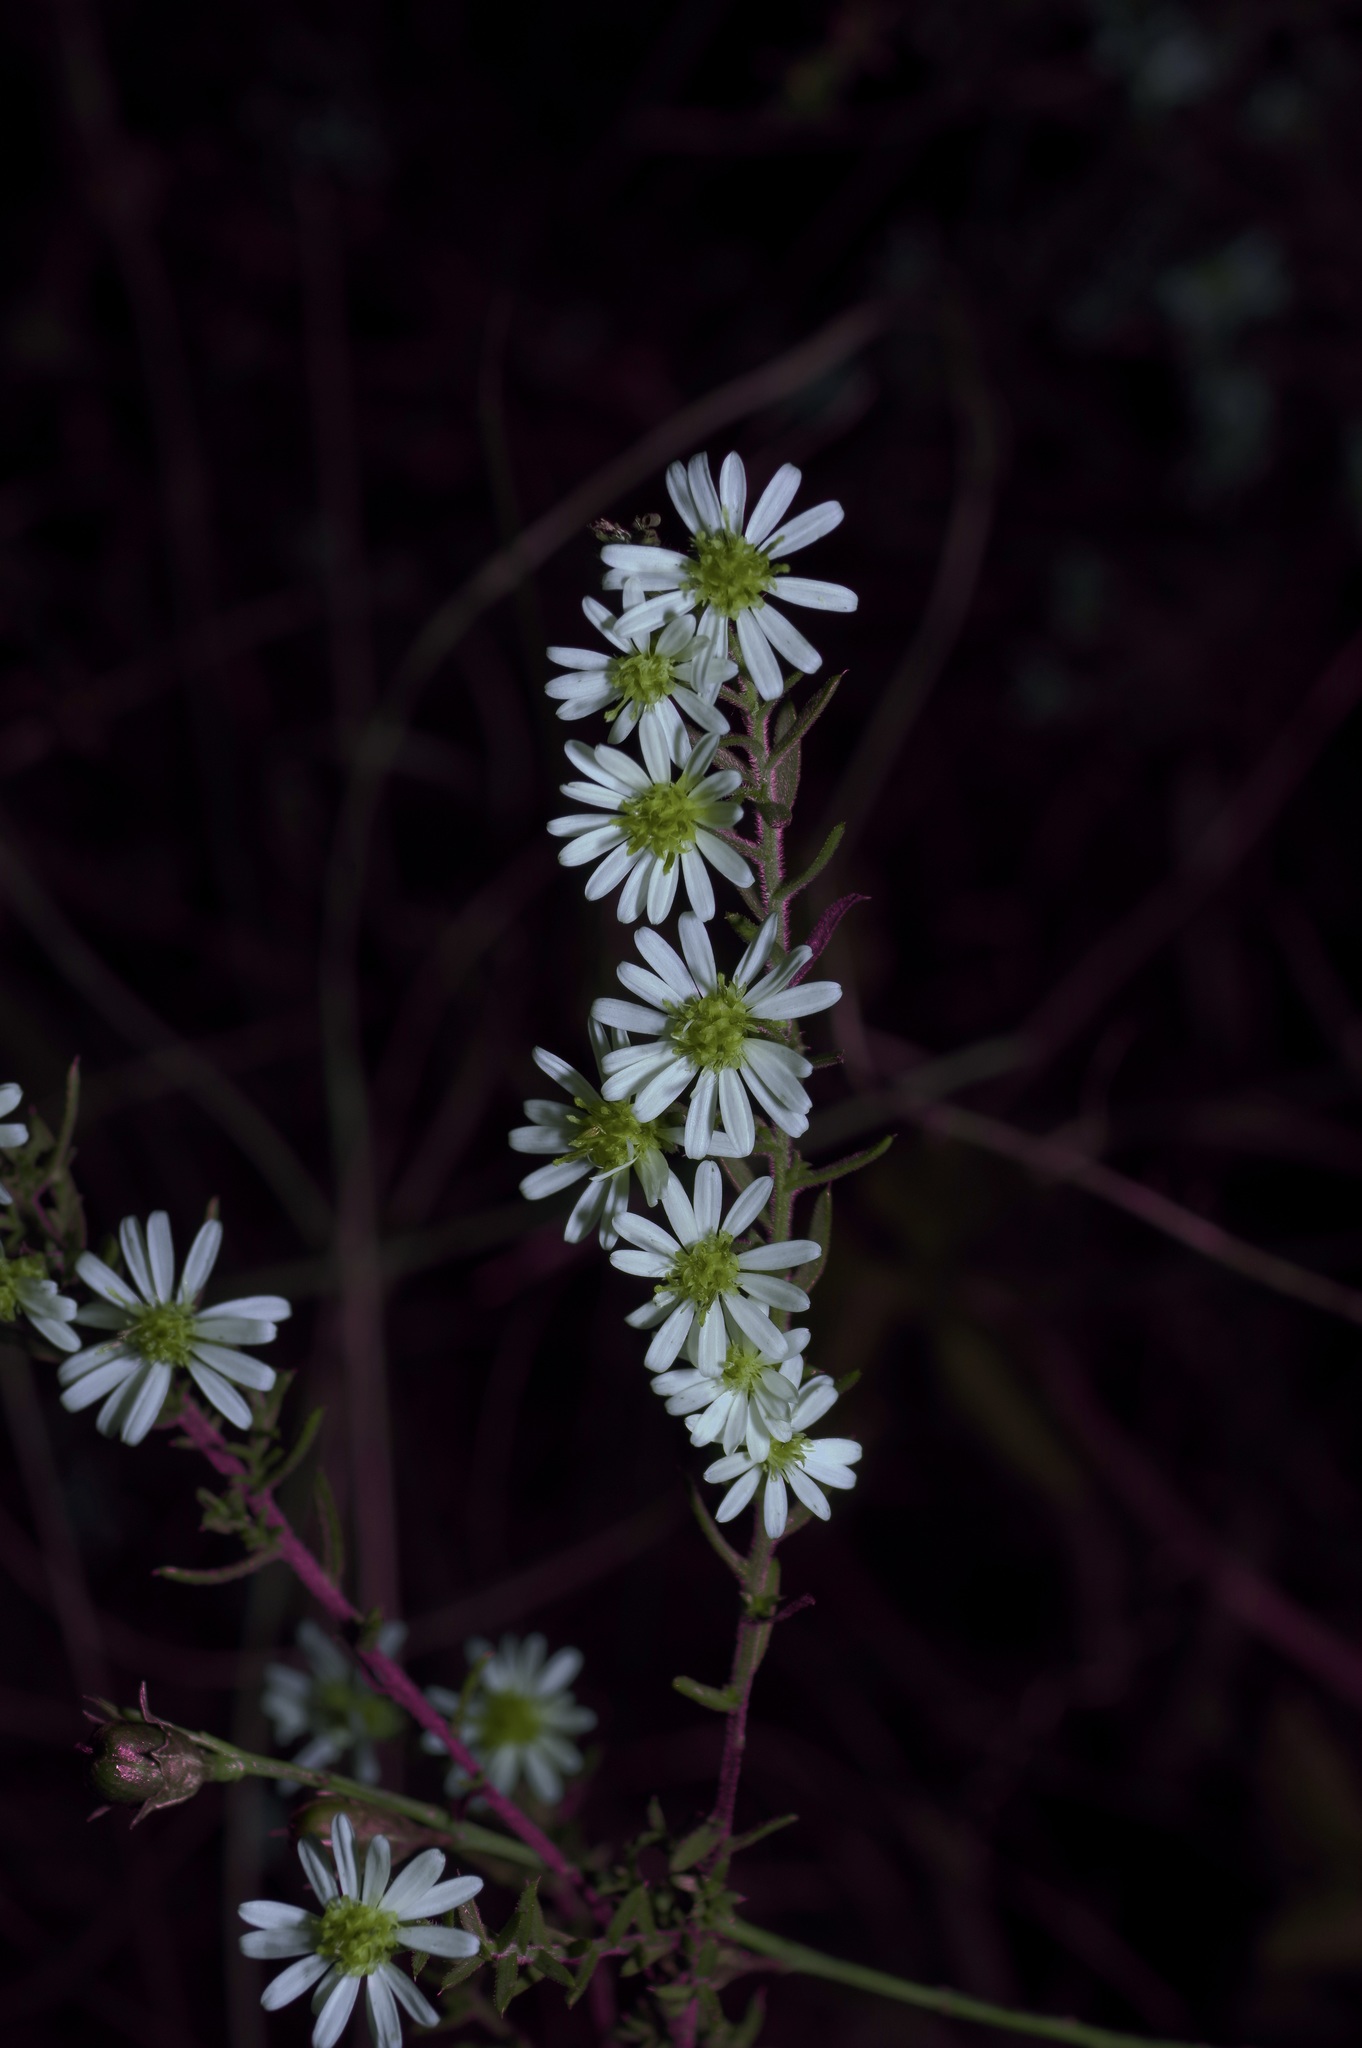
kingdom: Plantae
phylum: Tracheophyta
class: Magnoliopsida
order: Asterales
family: Asteraceae
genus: Symphyotrichum
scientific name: Symphyotrichum ericoides
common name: Heath aster
